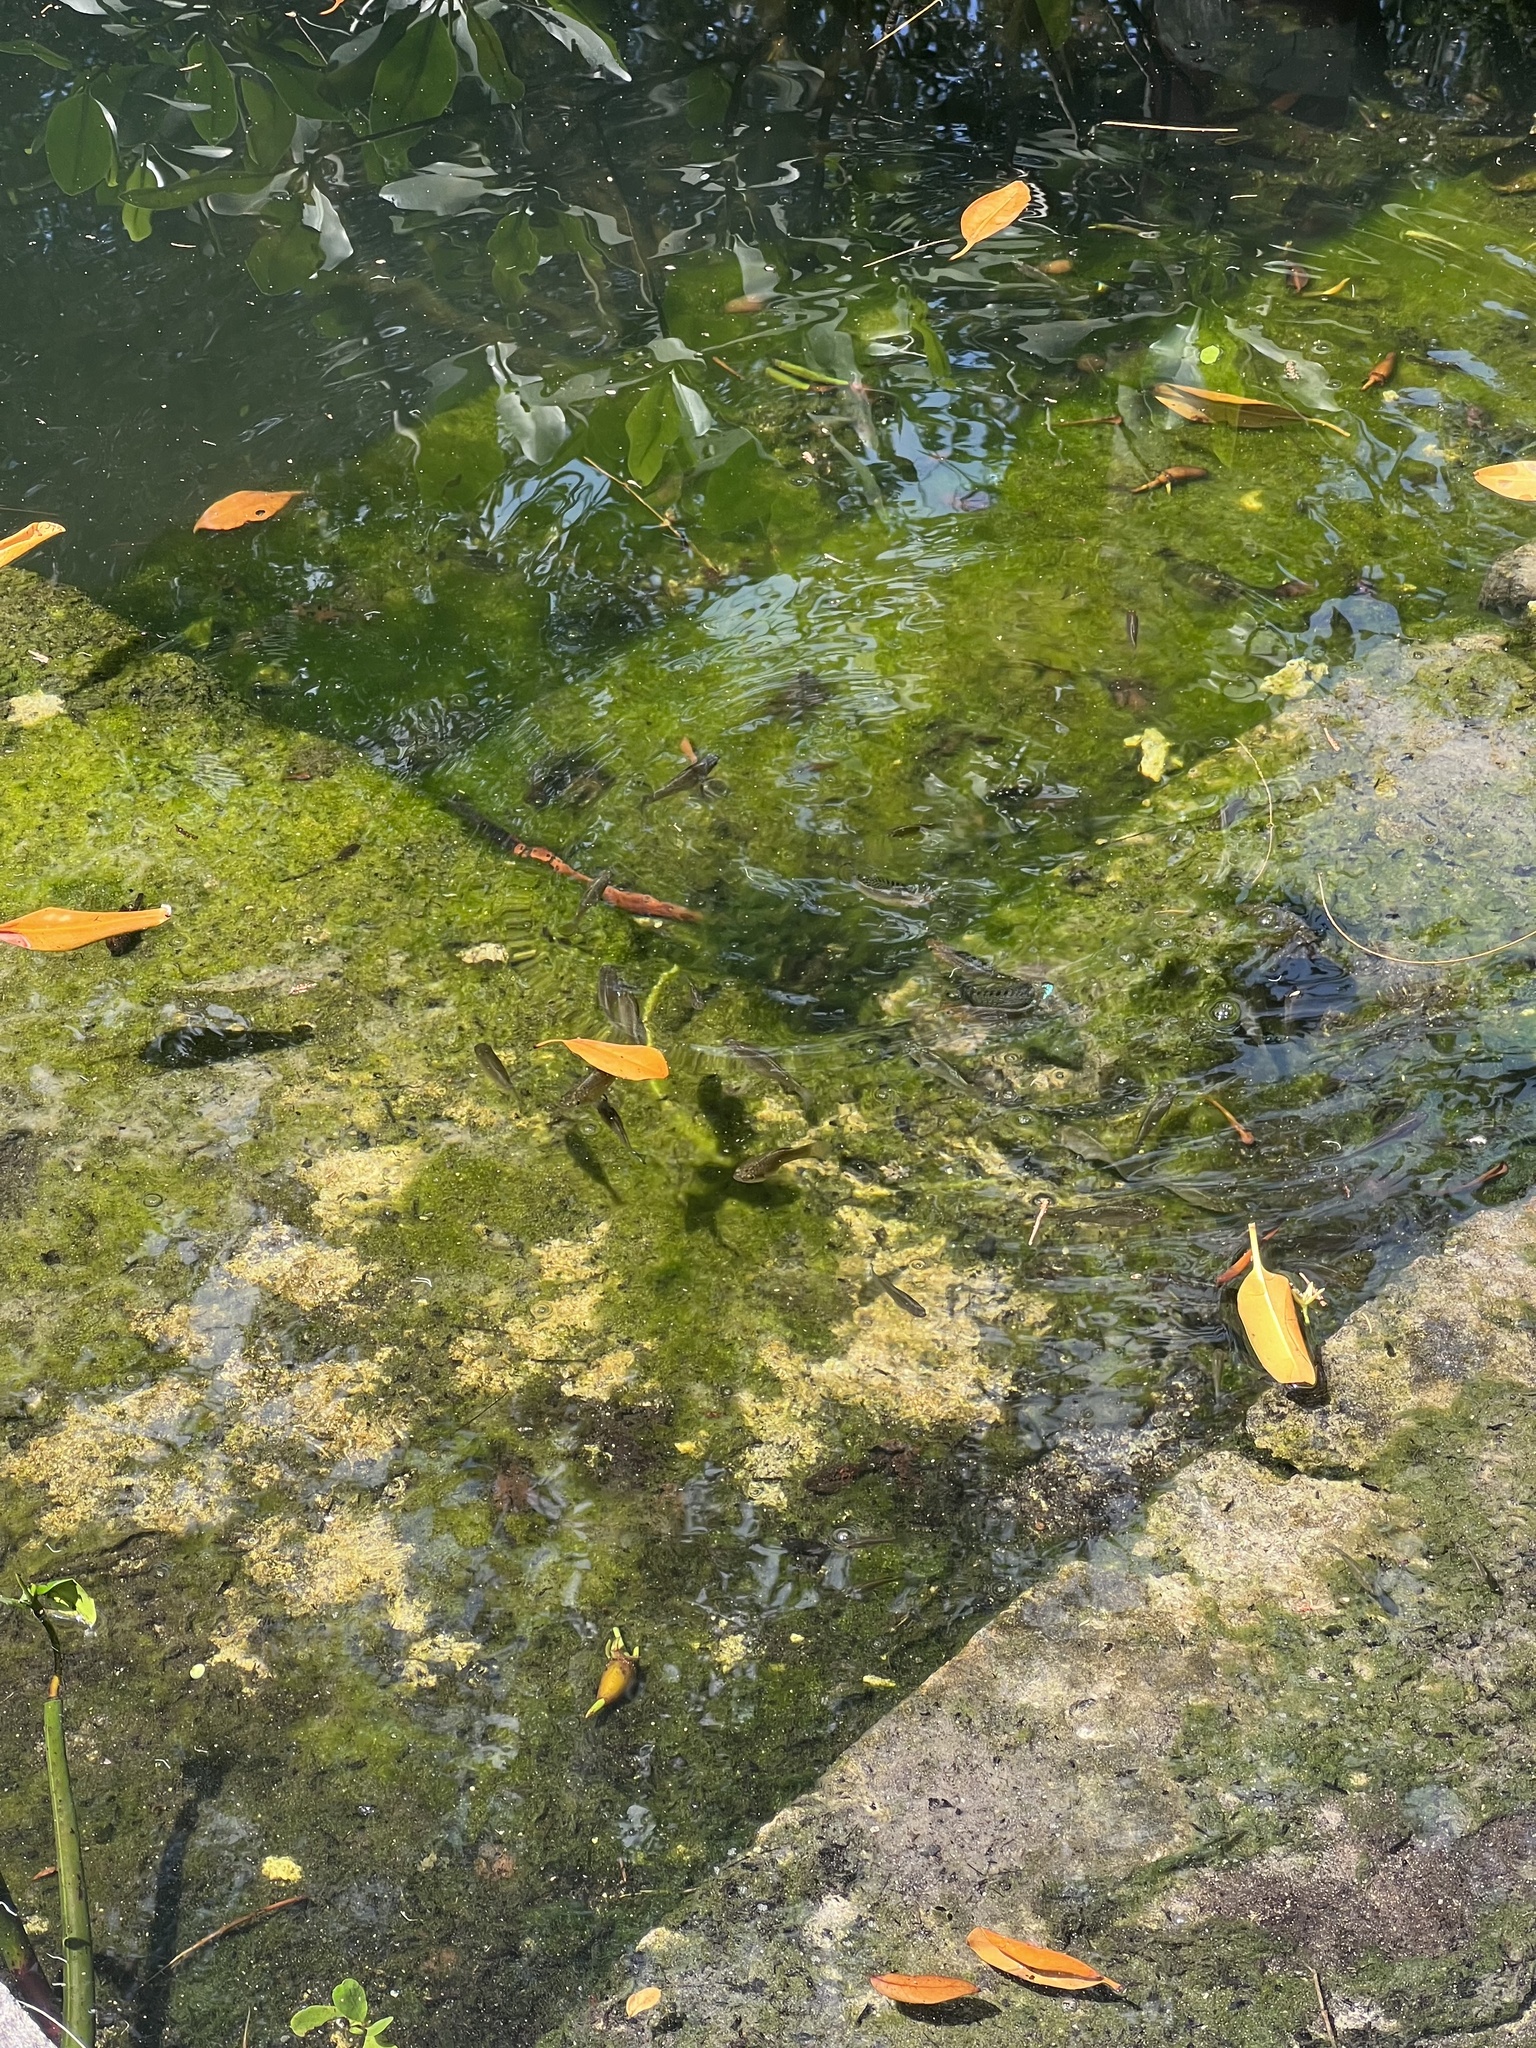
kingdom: Animalia
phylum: Chordata
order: Cyprinodontiformes
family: Poeciliidae
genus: Poecilia
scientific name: Poecilia latipinna
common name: Sailfin molly
